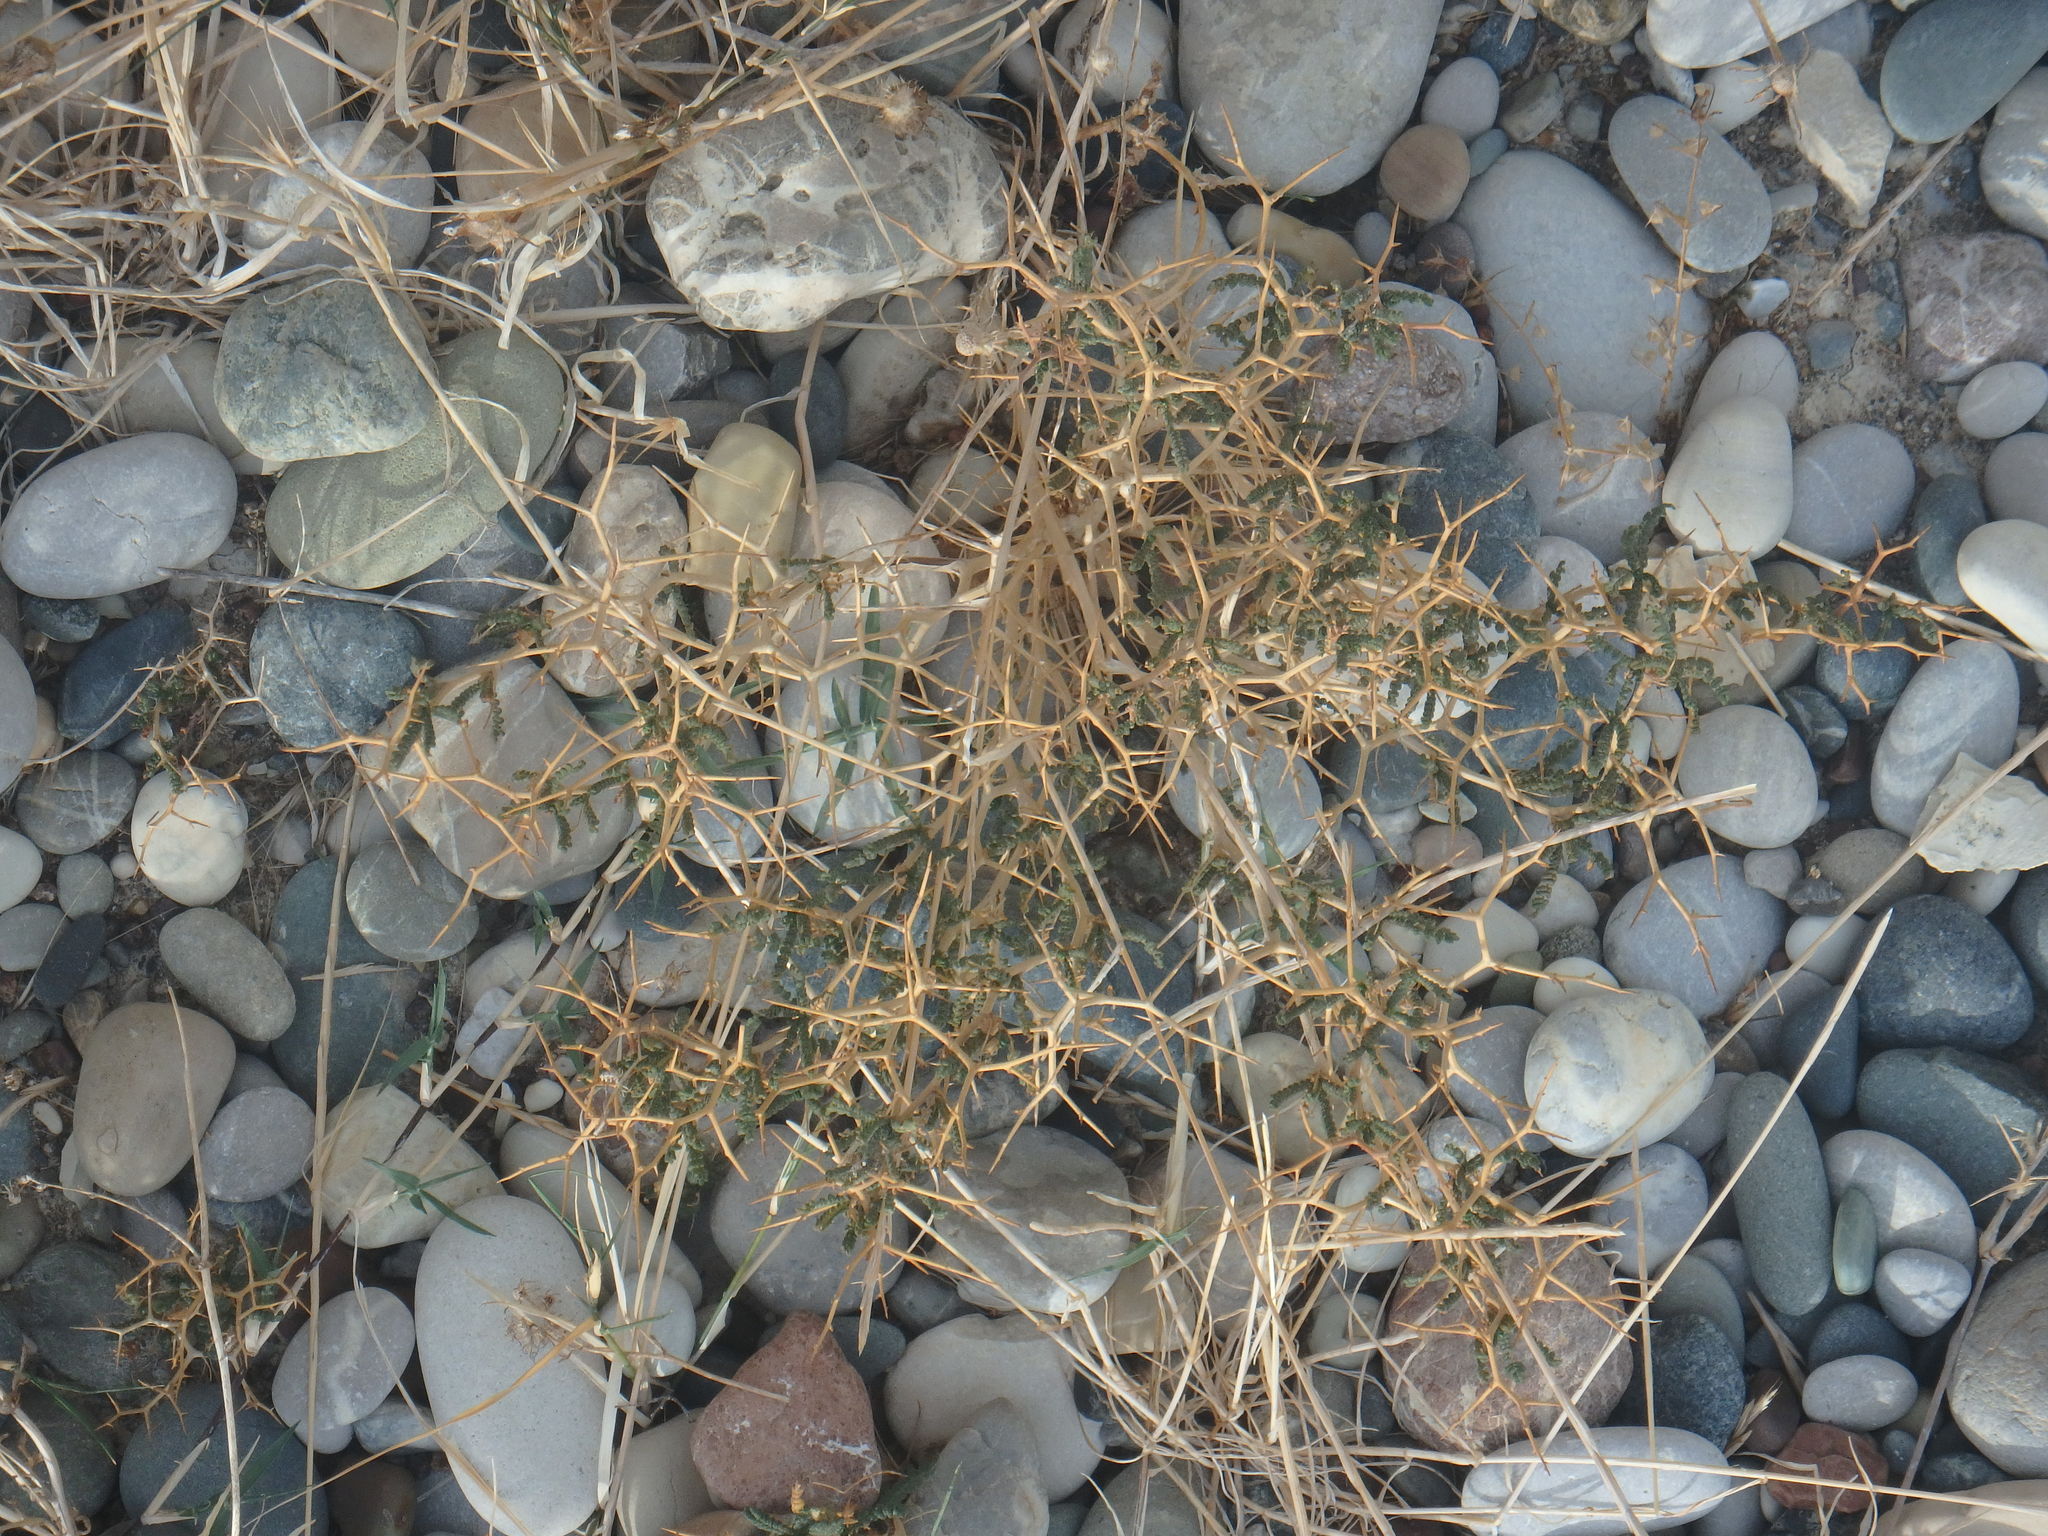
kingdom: Plantae
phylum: Tracheophyta
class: Magnoliopsida
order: Rosales
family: Rosaceae
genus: Sarcopoterium
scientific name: Sarcopoterium spinosum
